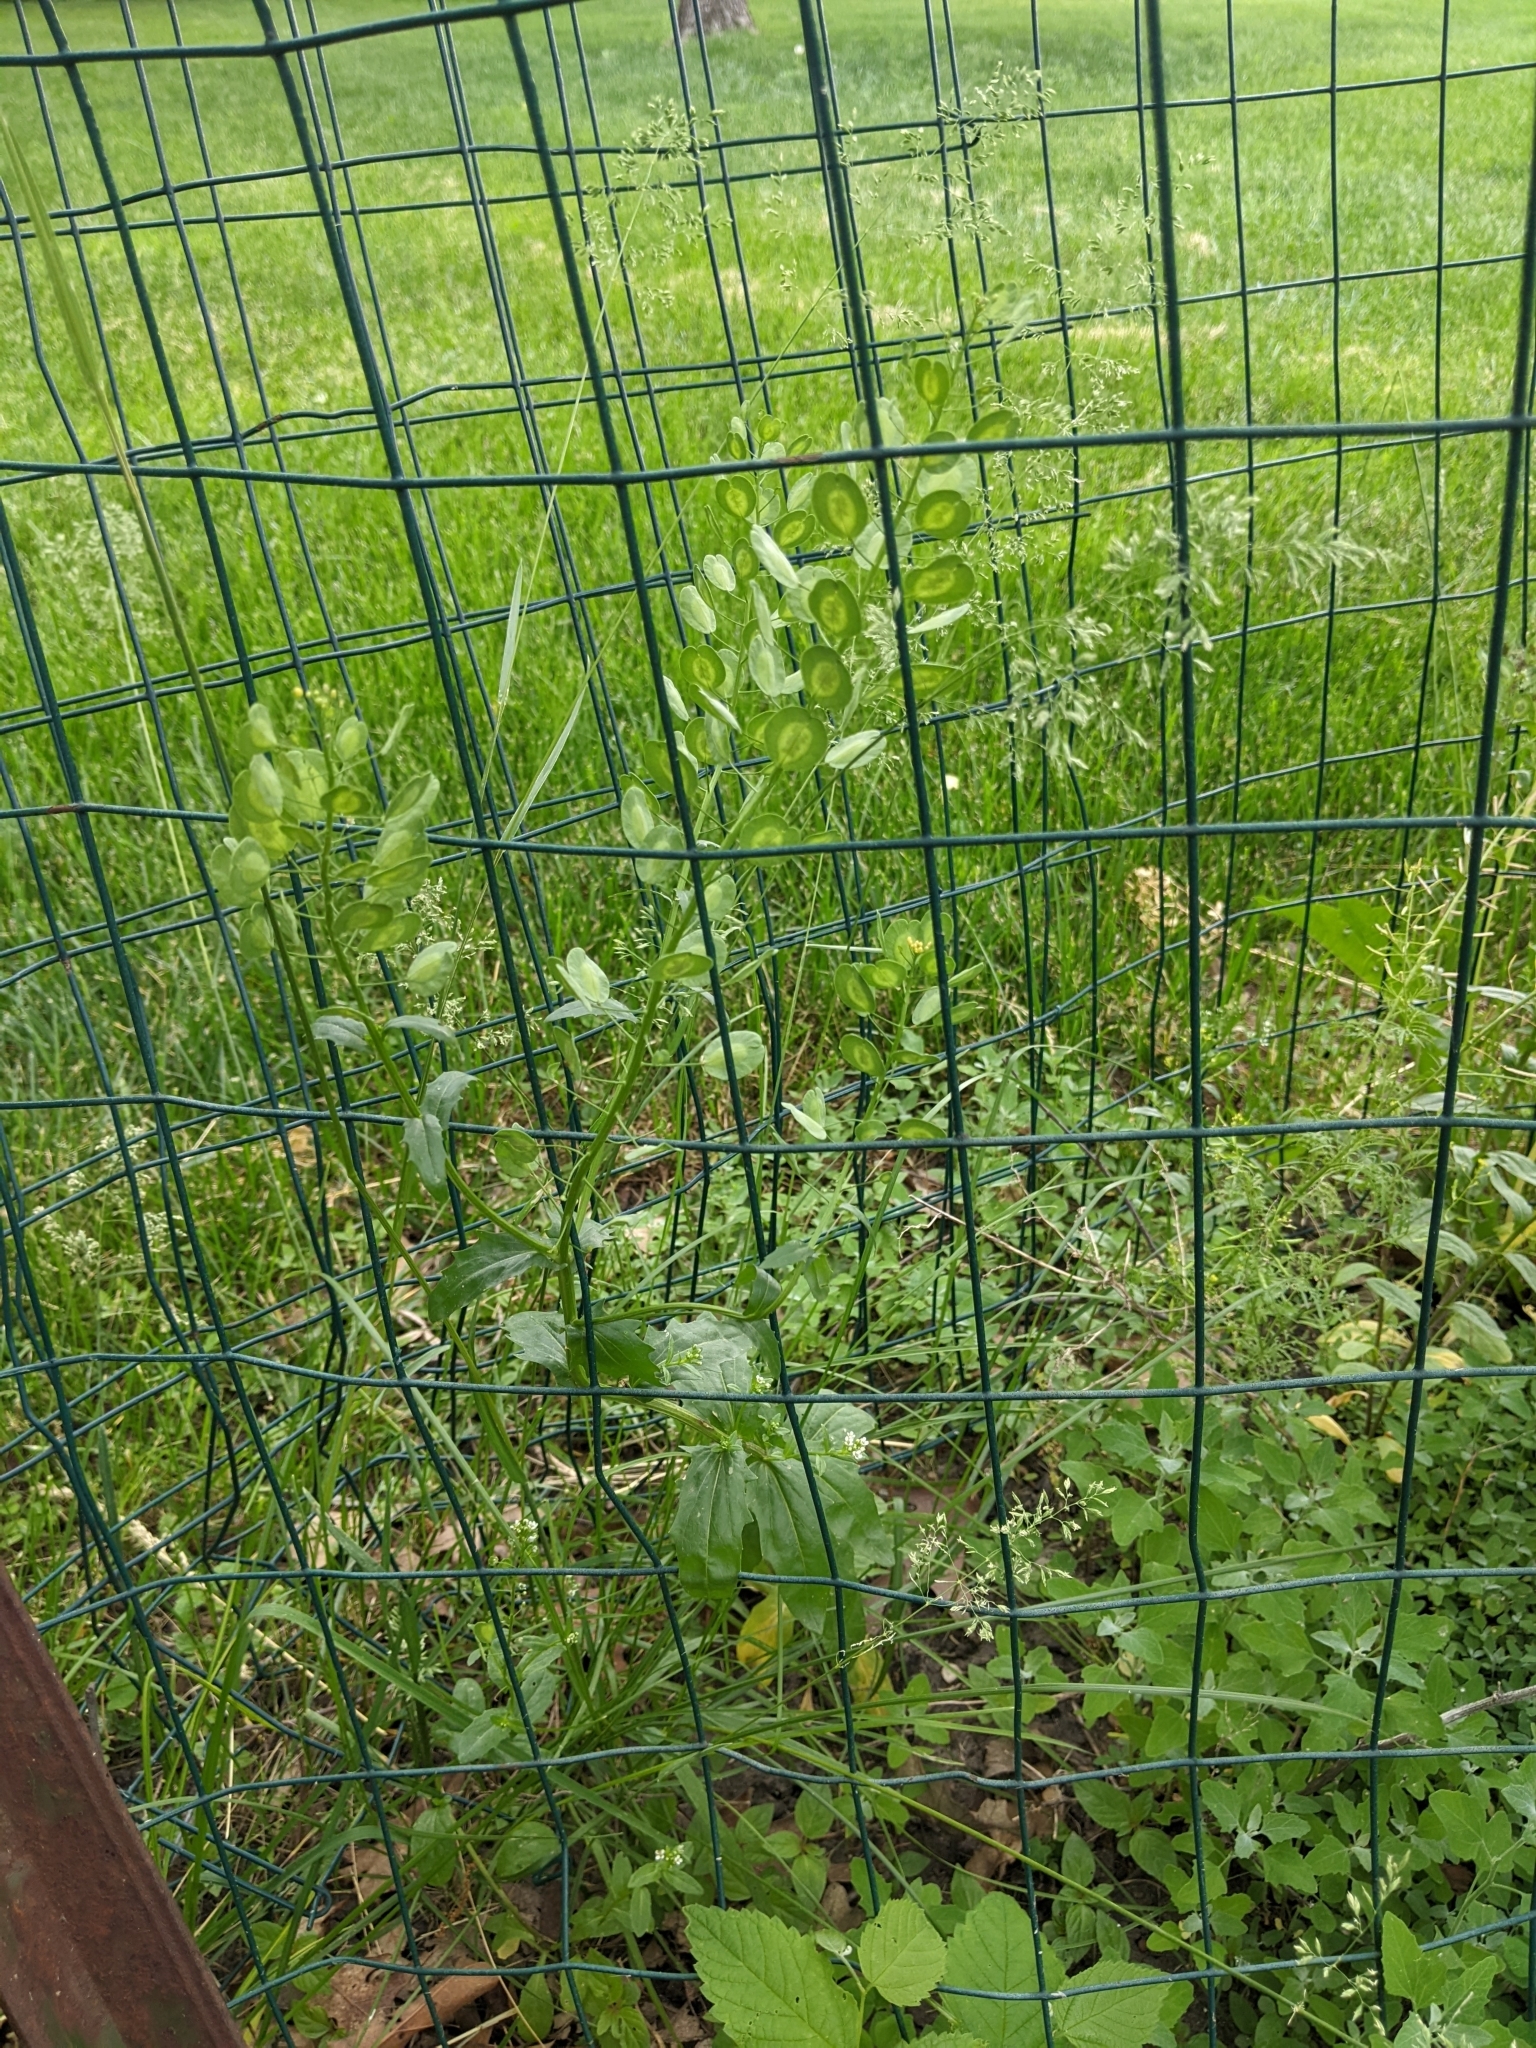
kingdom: Plantae
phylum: Tracheophyta
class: Magnoliopsida
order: Brassicales
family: Brassicaceae
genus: Thlaspi
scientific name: Thlaspi arvense
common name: Field pennycress
